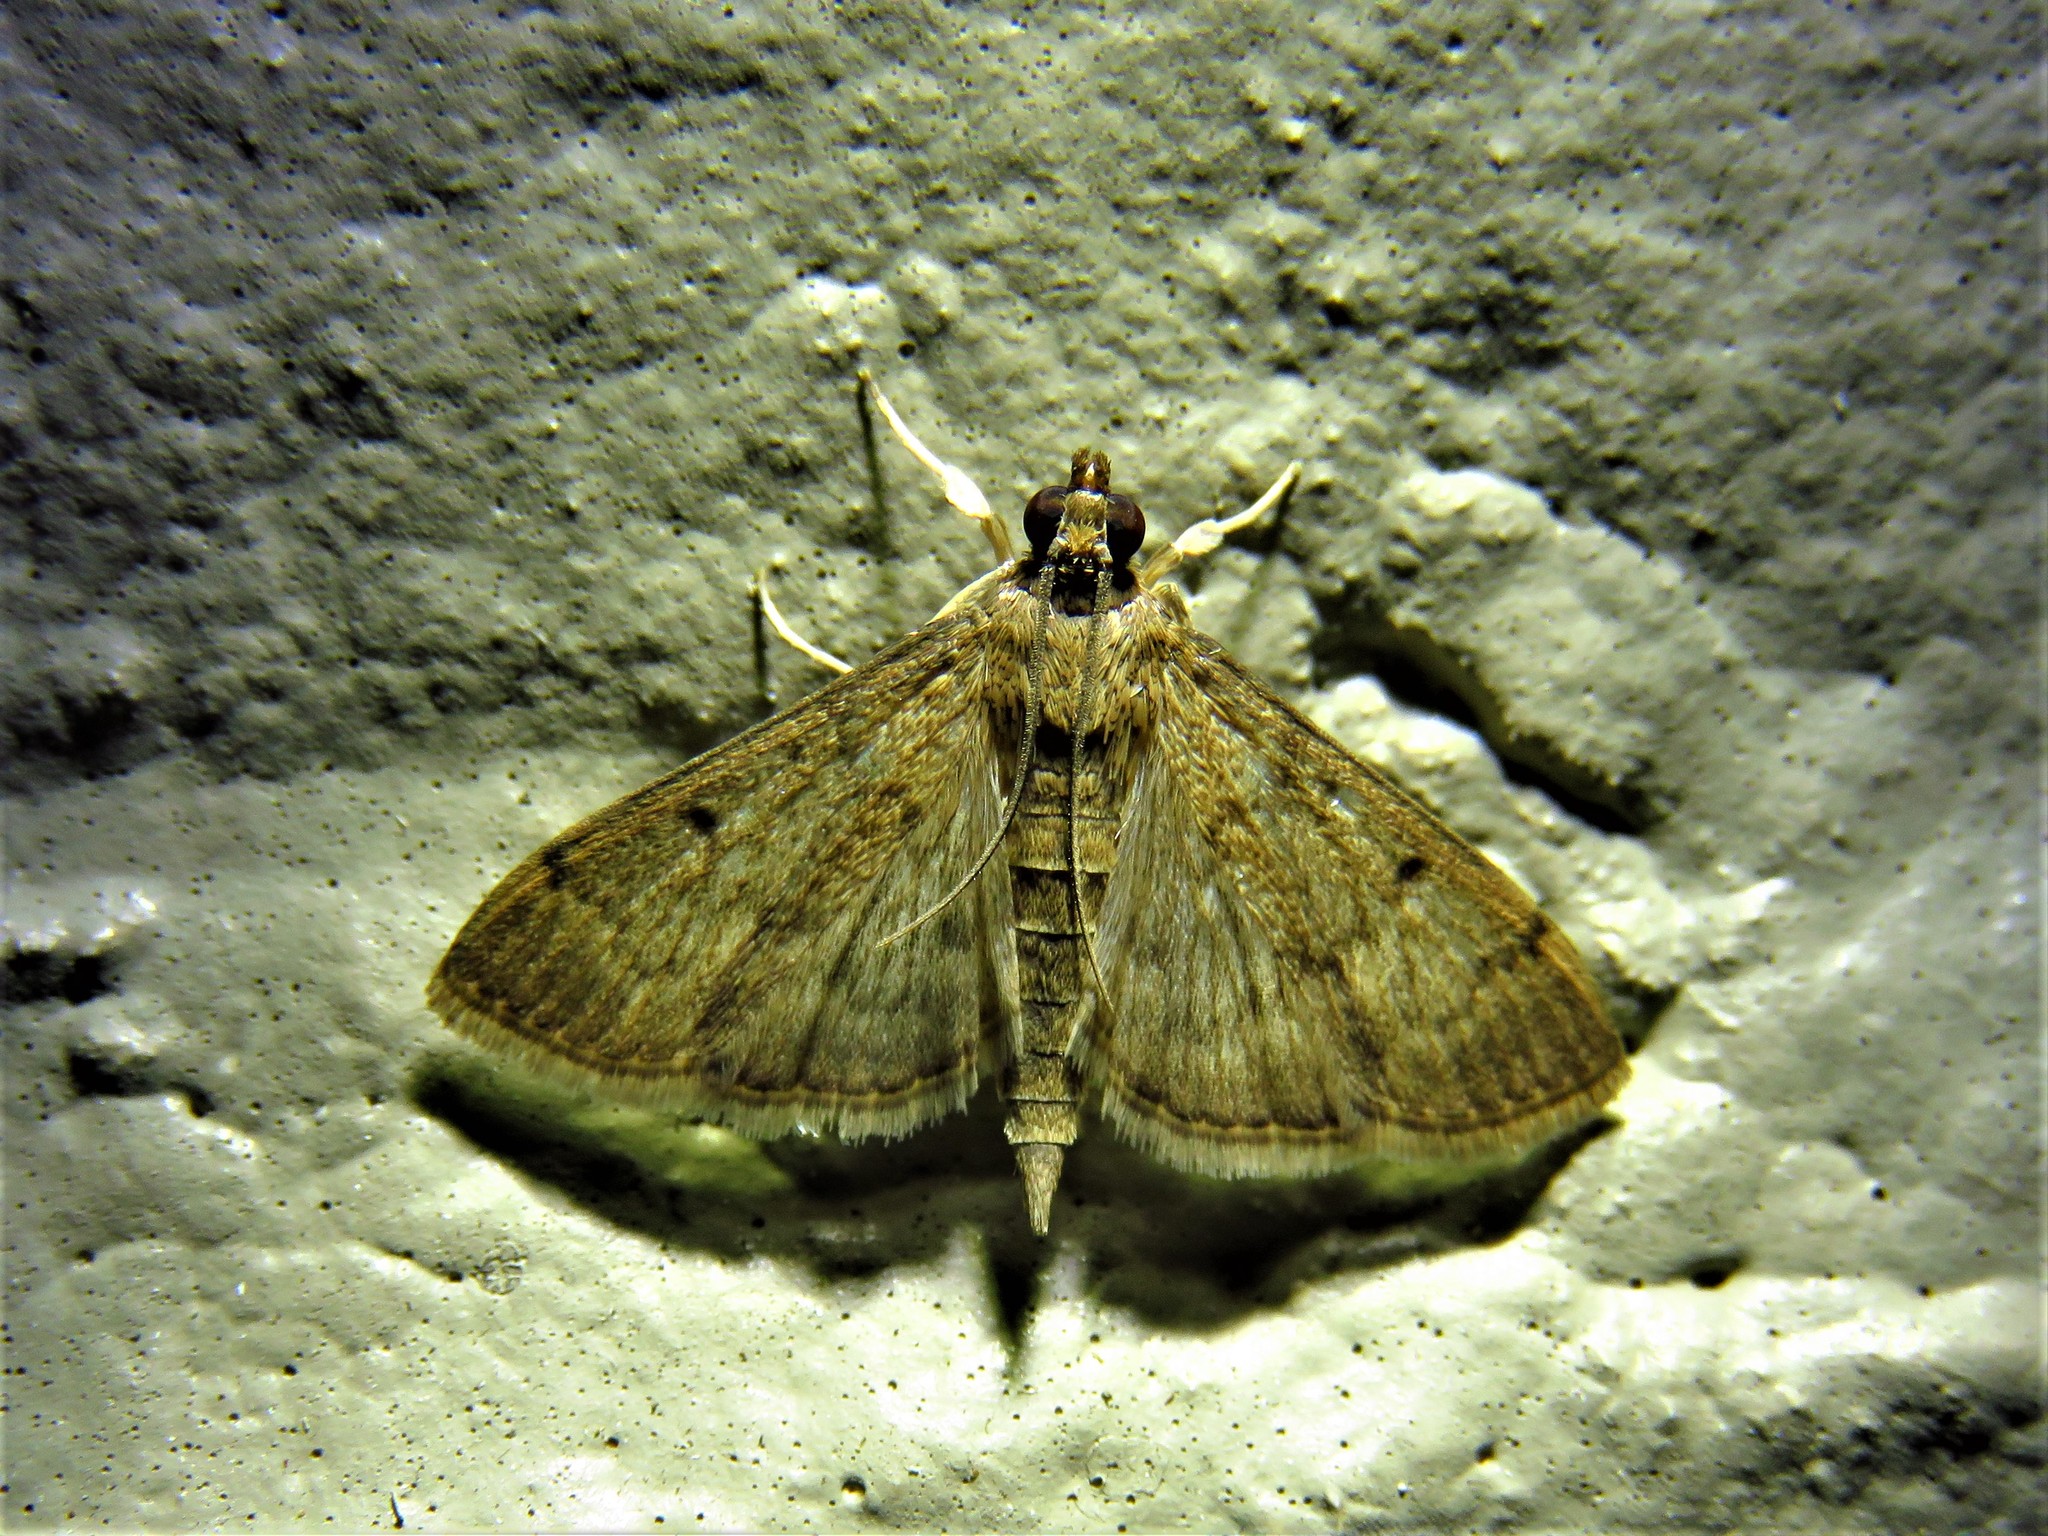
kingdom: Animalia
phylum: Arthropoda
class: Insecta
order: Lepidoptera
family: Crambidae
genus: Herpetogramma
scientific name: Herpetogramma phaeopteralis
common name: Dusky herpetogramma moth
